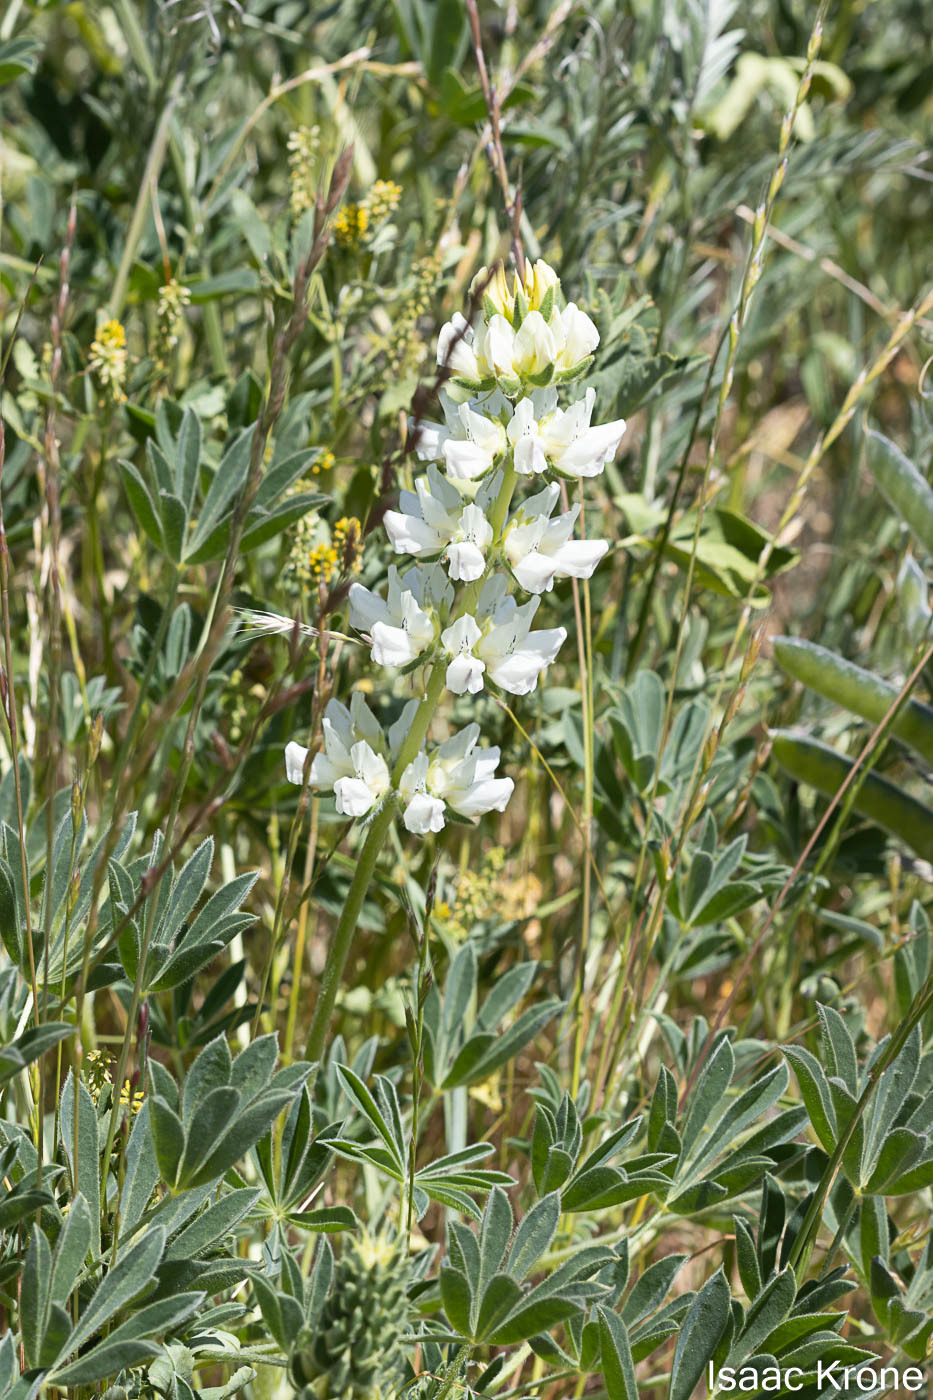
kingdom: Plantae
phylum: Tracheophyta
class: Magnoliopsida
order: Fabales
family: Fabaceae
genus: Lupinus
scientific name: Lupinus microcarpus
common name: Chick lupine
